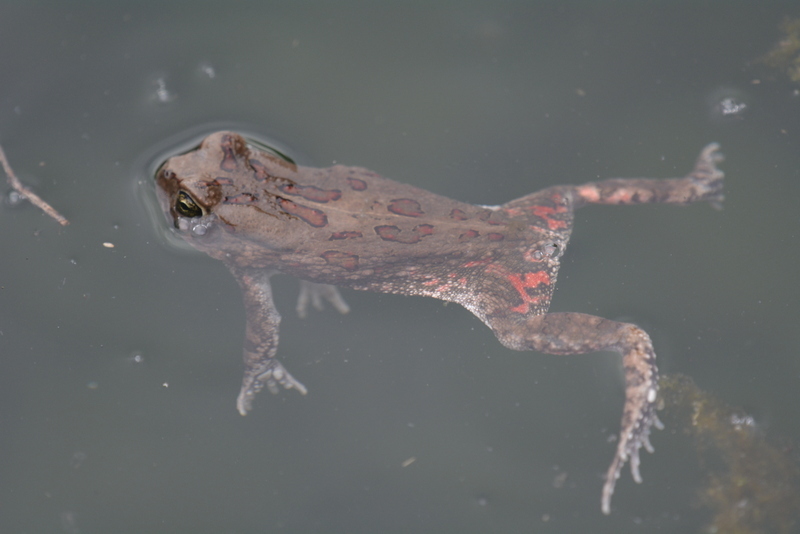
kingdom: Animalia
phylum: Chordata
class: Amphibia
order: Anura
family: Bufonidae
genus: Sclerophrys
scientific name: Sclerophrys garmani
